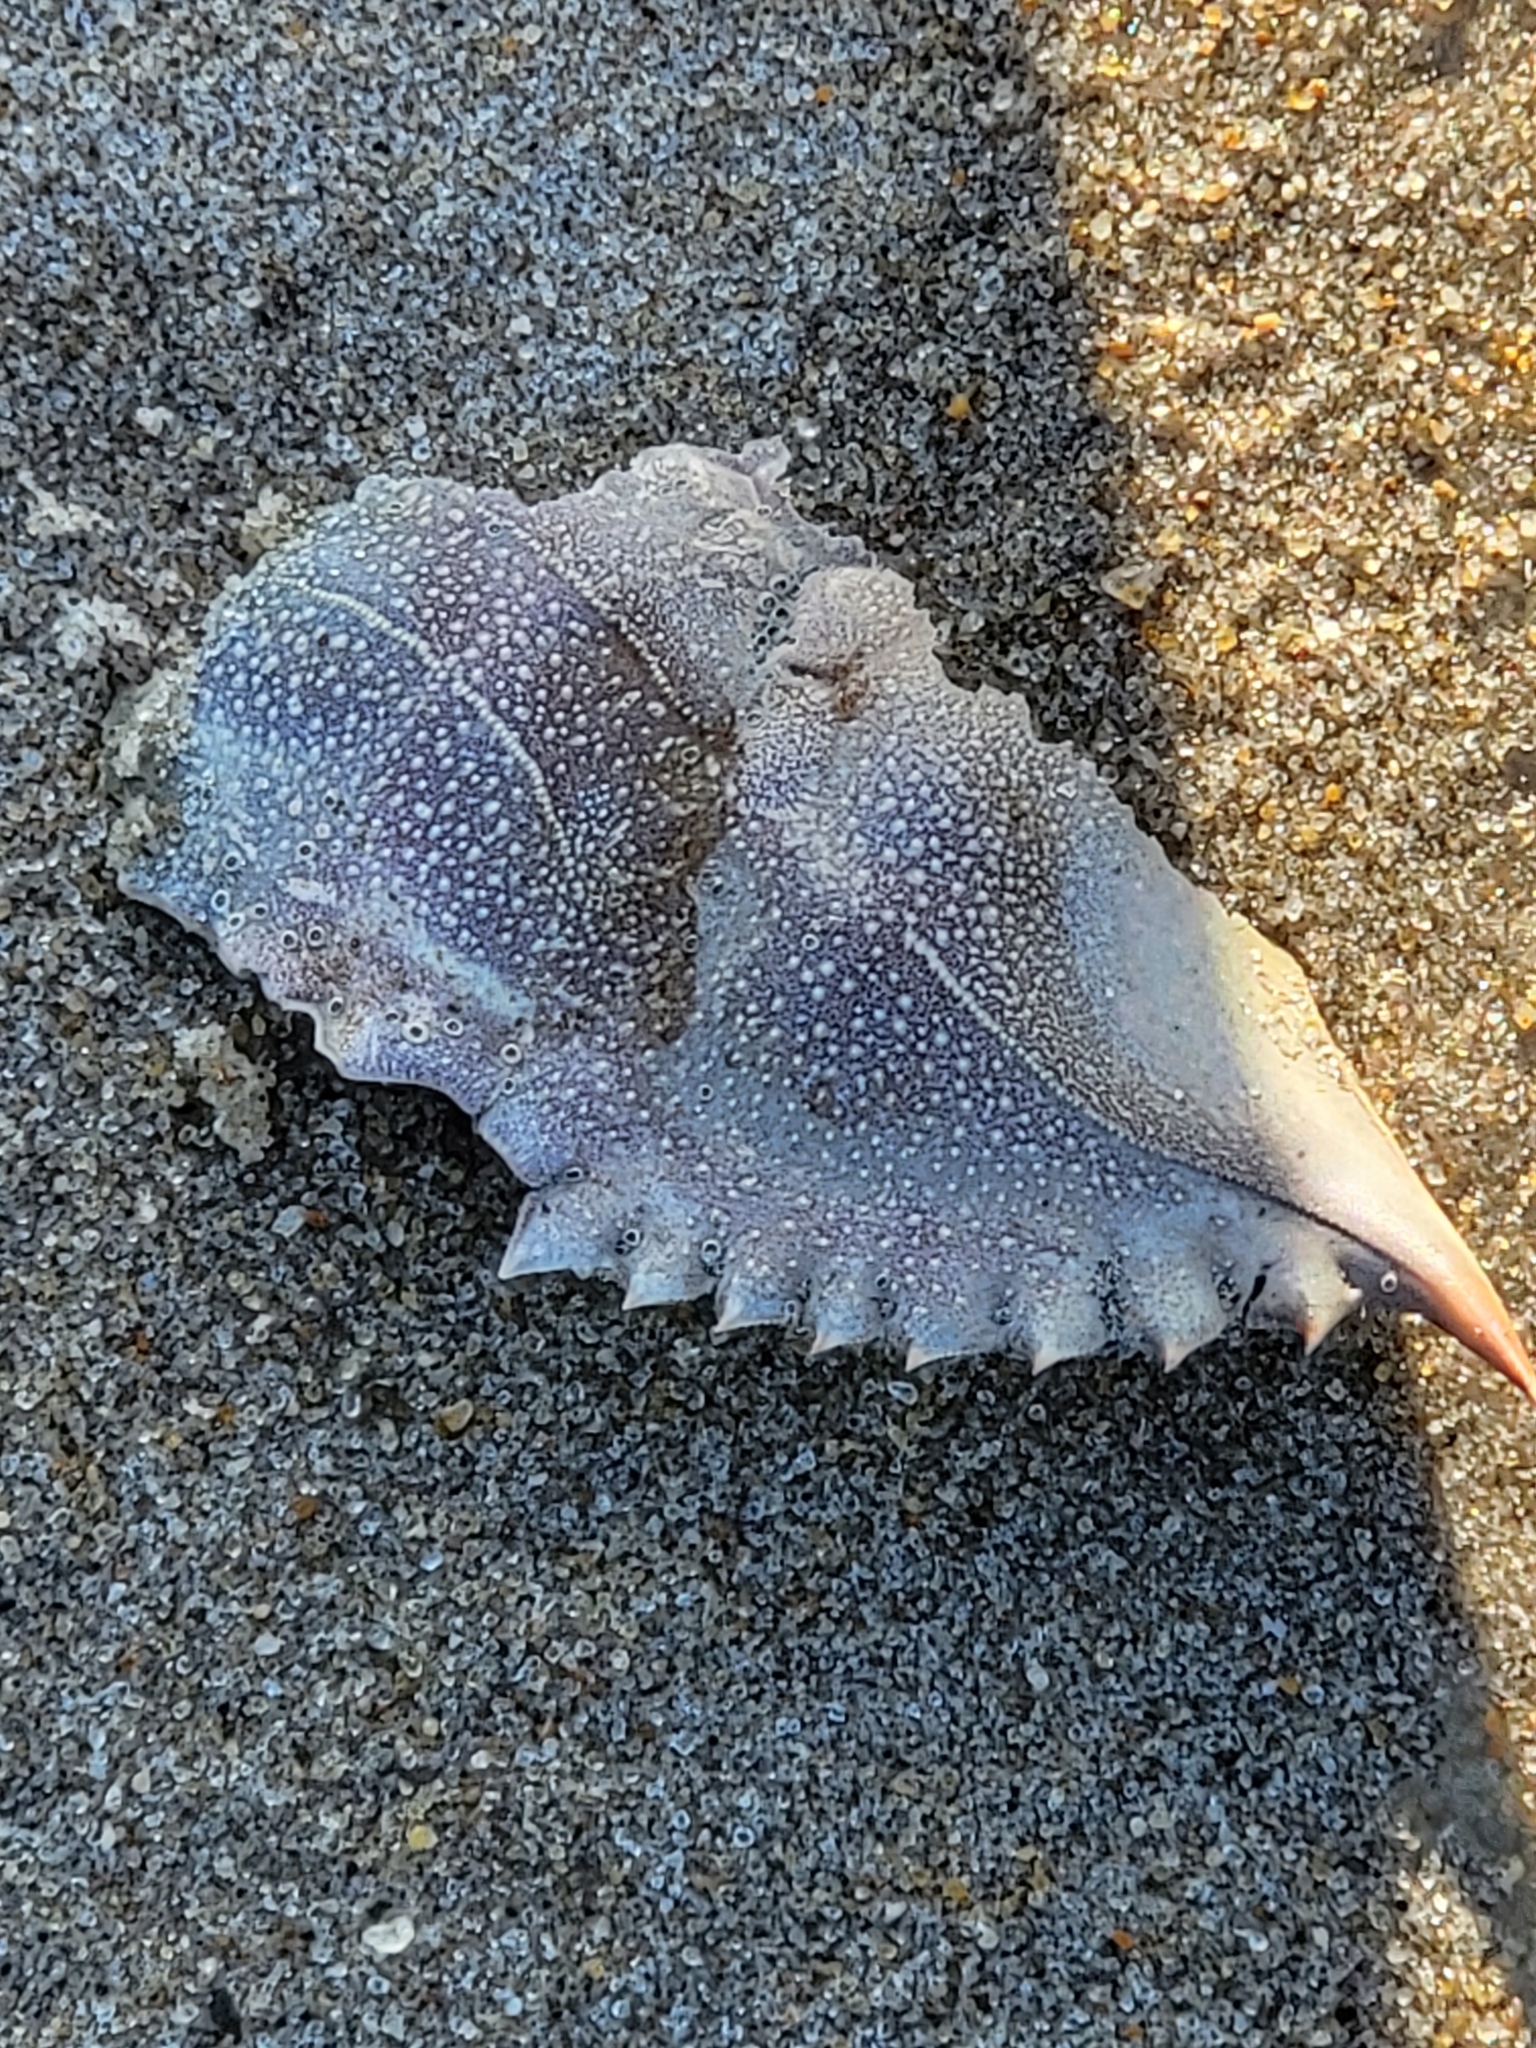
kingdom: Animalia
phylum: Arthropoda
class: Malacostraca
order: Decapoda
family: Portunidae
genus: Callinectes
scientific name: Callinectes sapidus
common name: Blue crab
